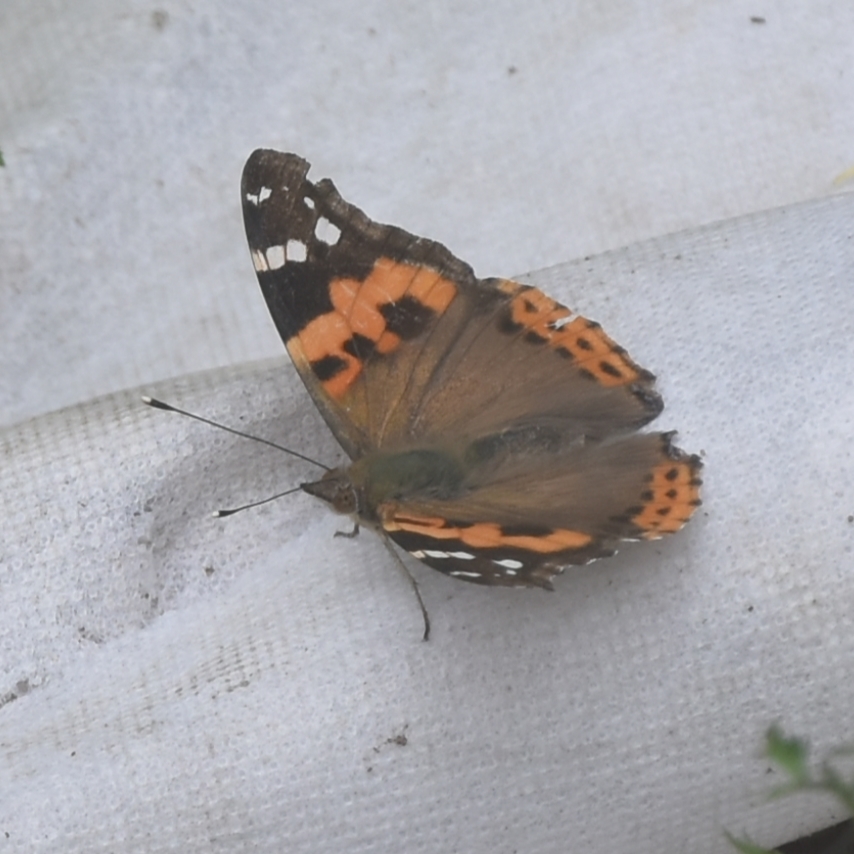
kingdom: Animalia
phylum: Arthropoda
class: Insecta
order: Lepidoptera
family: Nymphalidae
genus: Vanessa
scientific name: Vanessa indica
